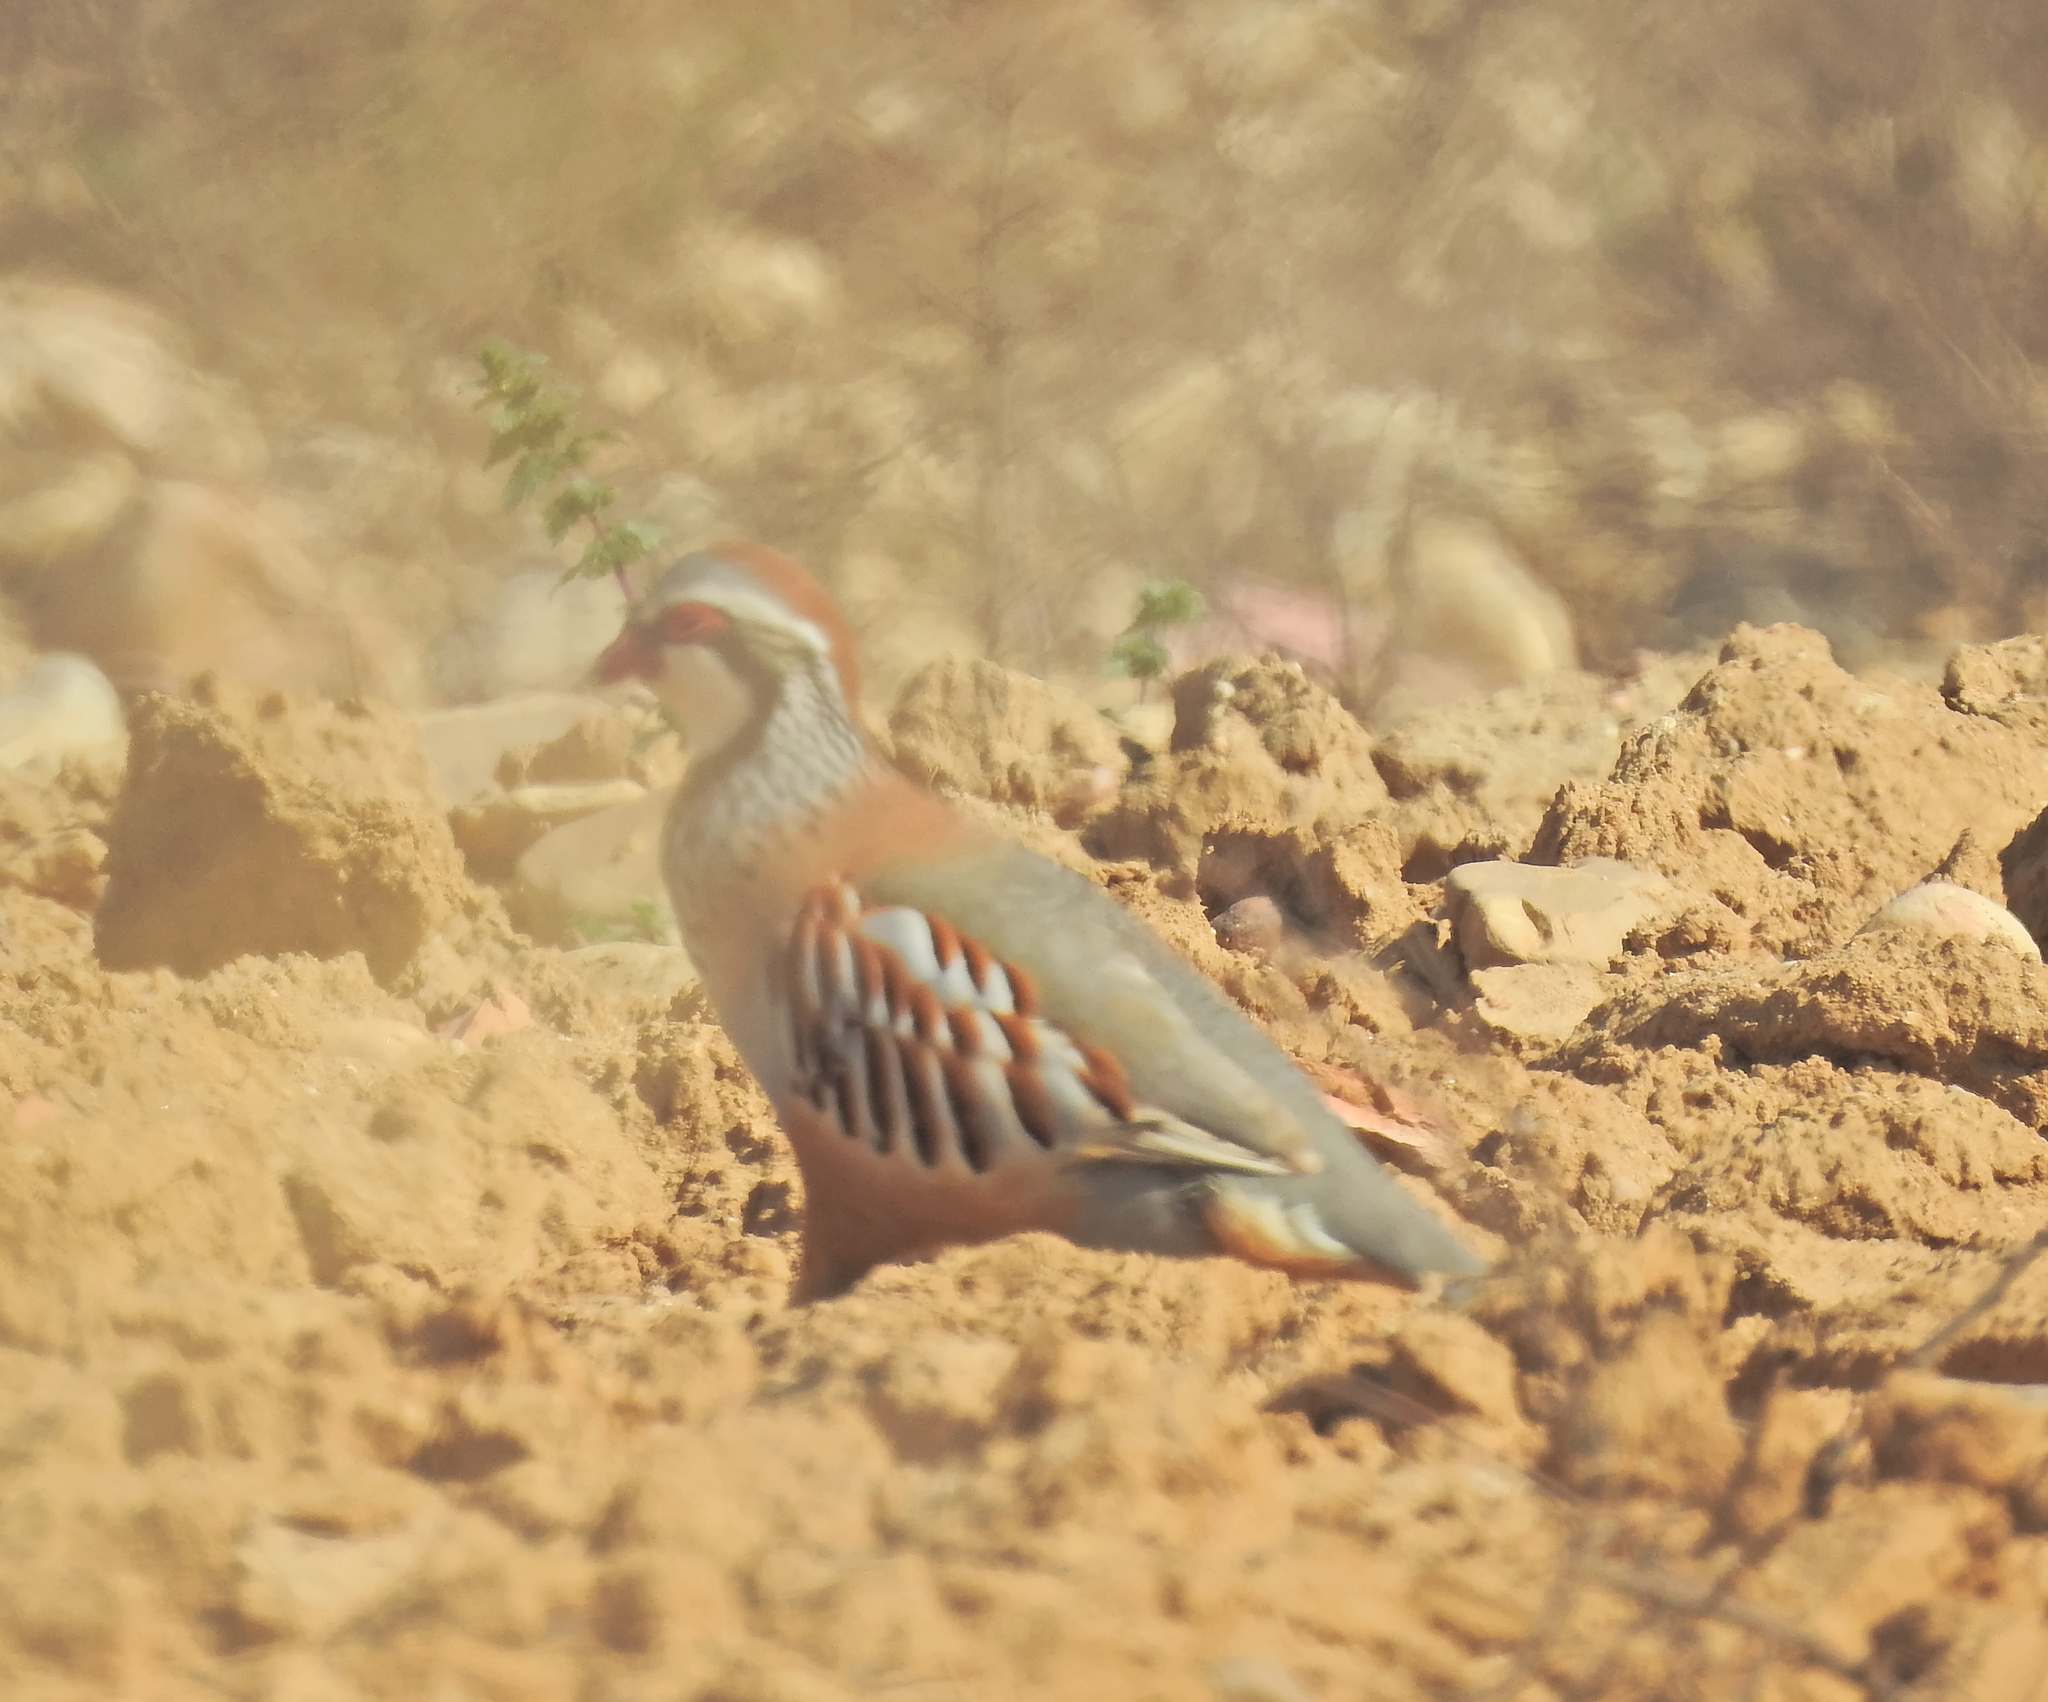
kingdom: Animalia
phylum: Chordata
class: Aves
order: Galliformes
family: Phasianidae
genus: Alectoris
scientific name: Alectoris rufa
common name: Red-legged partridge
